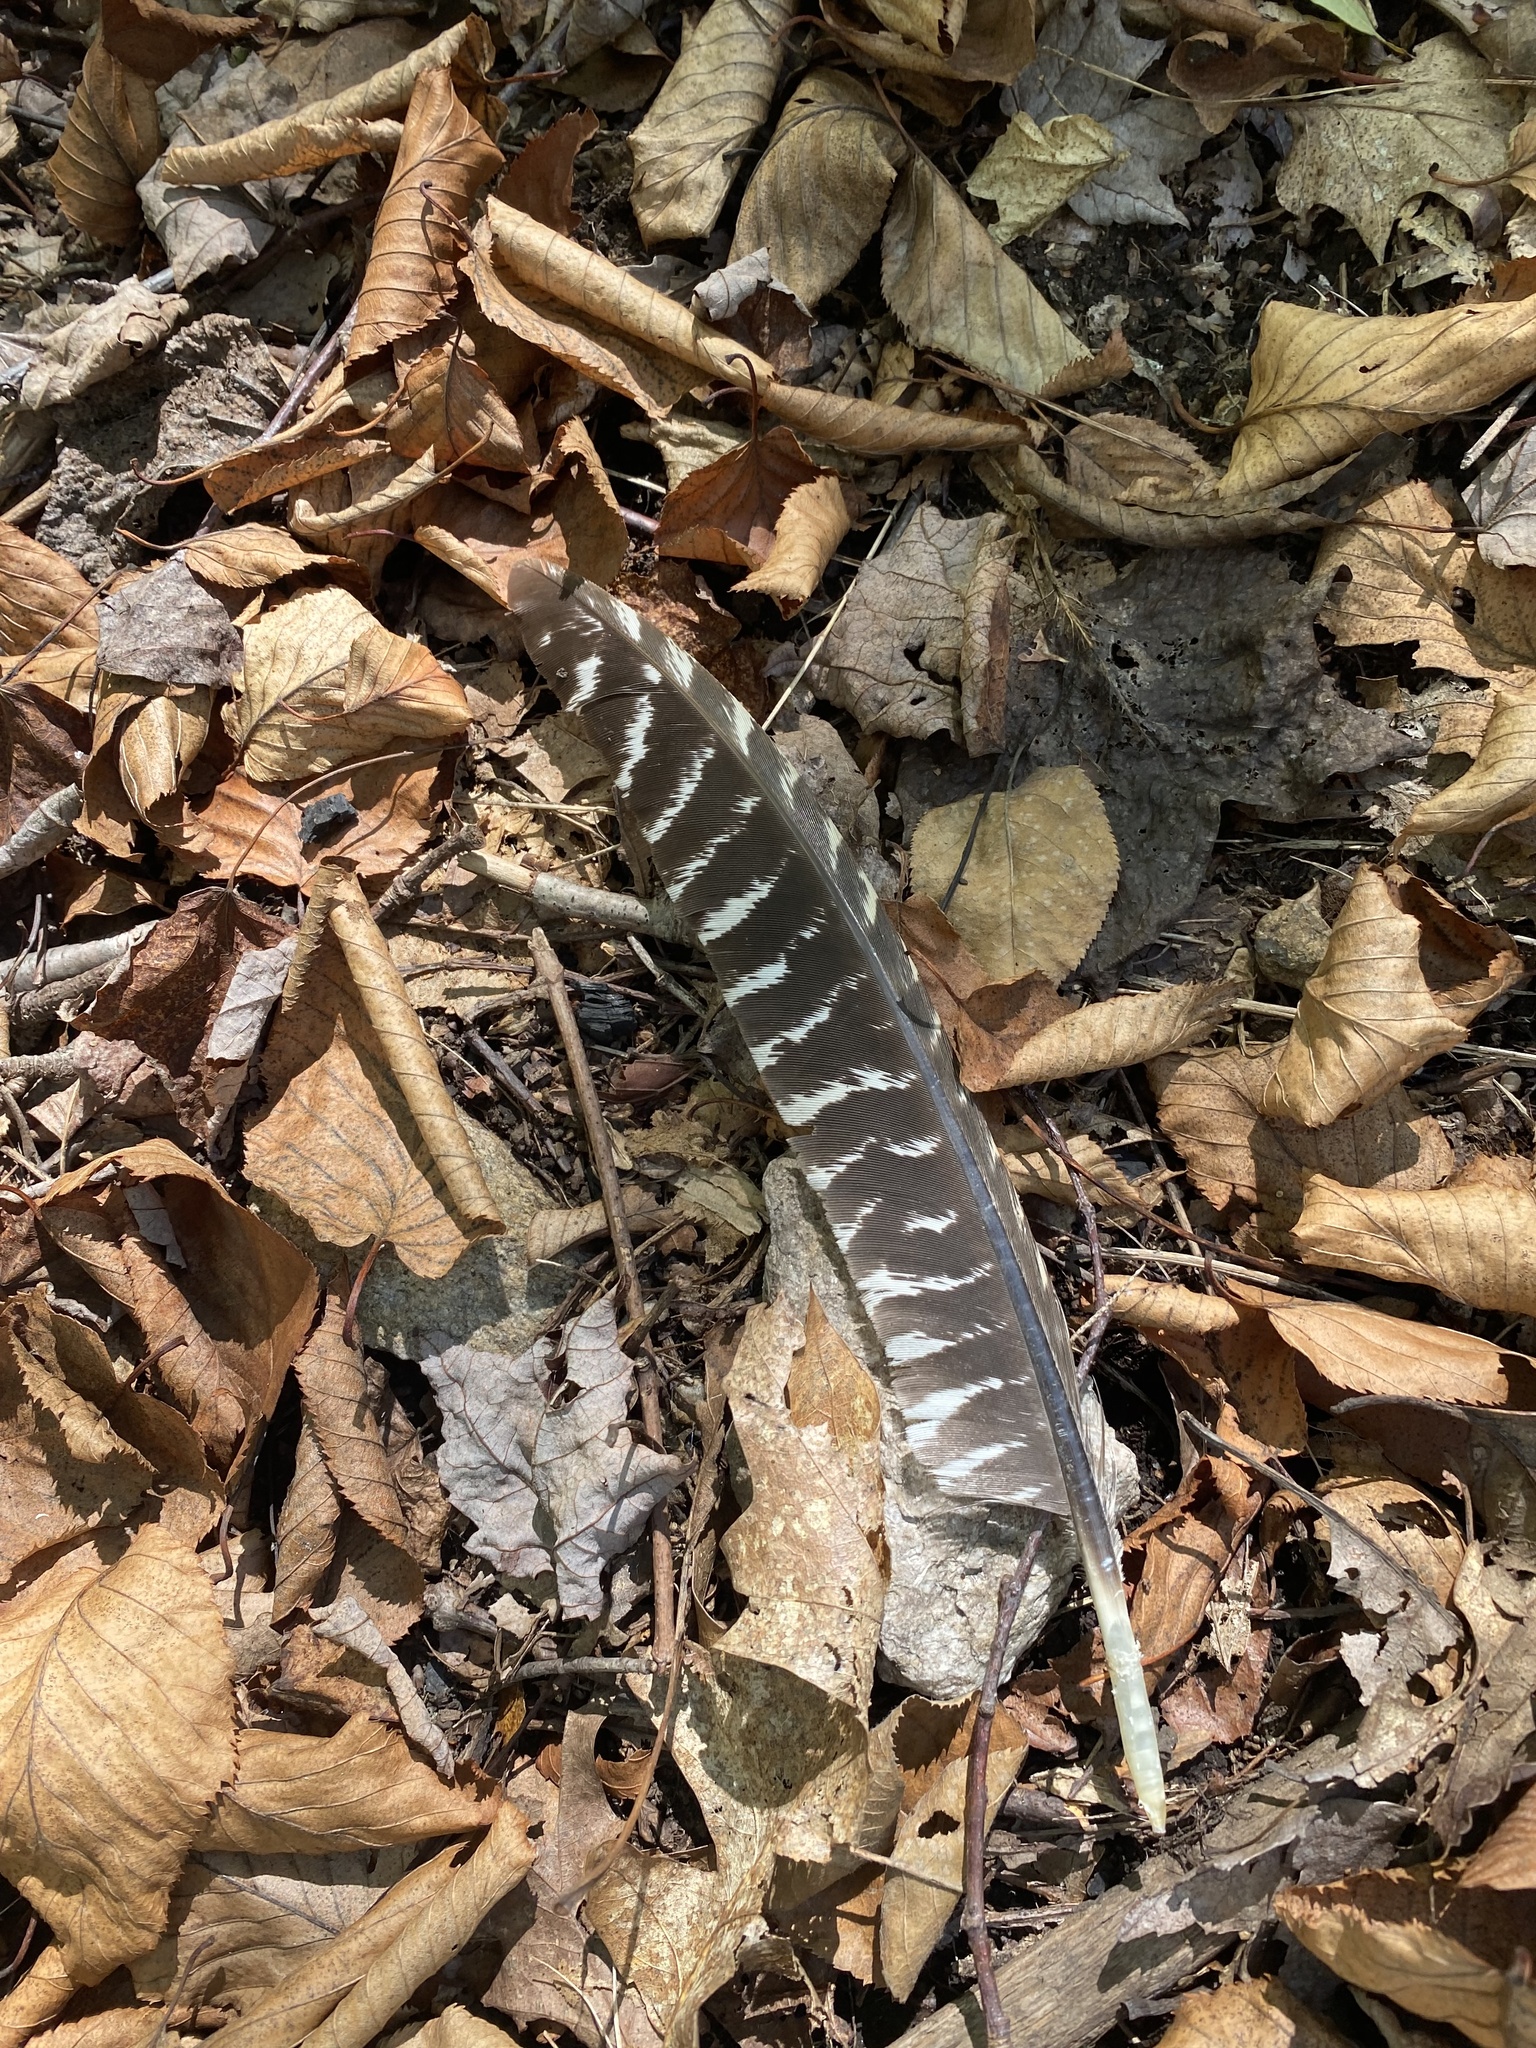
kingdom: Animalia
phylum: Chordata
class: Aves
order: Galliformes
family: Phasianidae
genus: Meleagris
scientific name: Meleagris gallopavo
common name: Wild turkey
